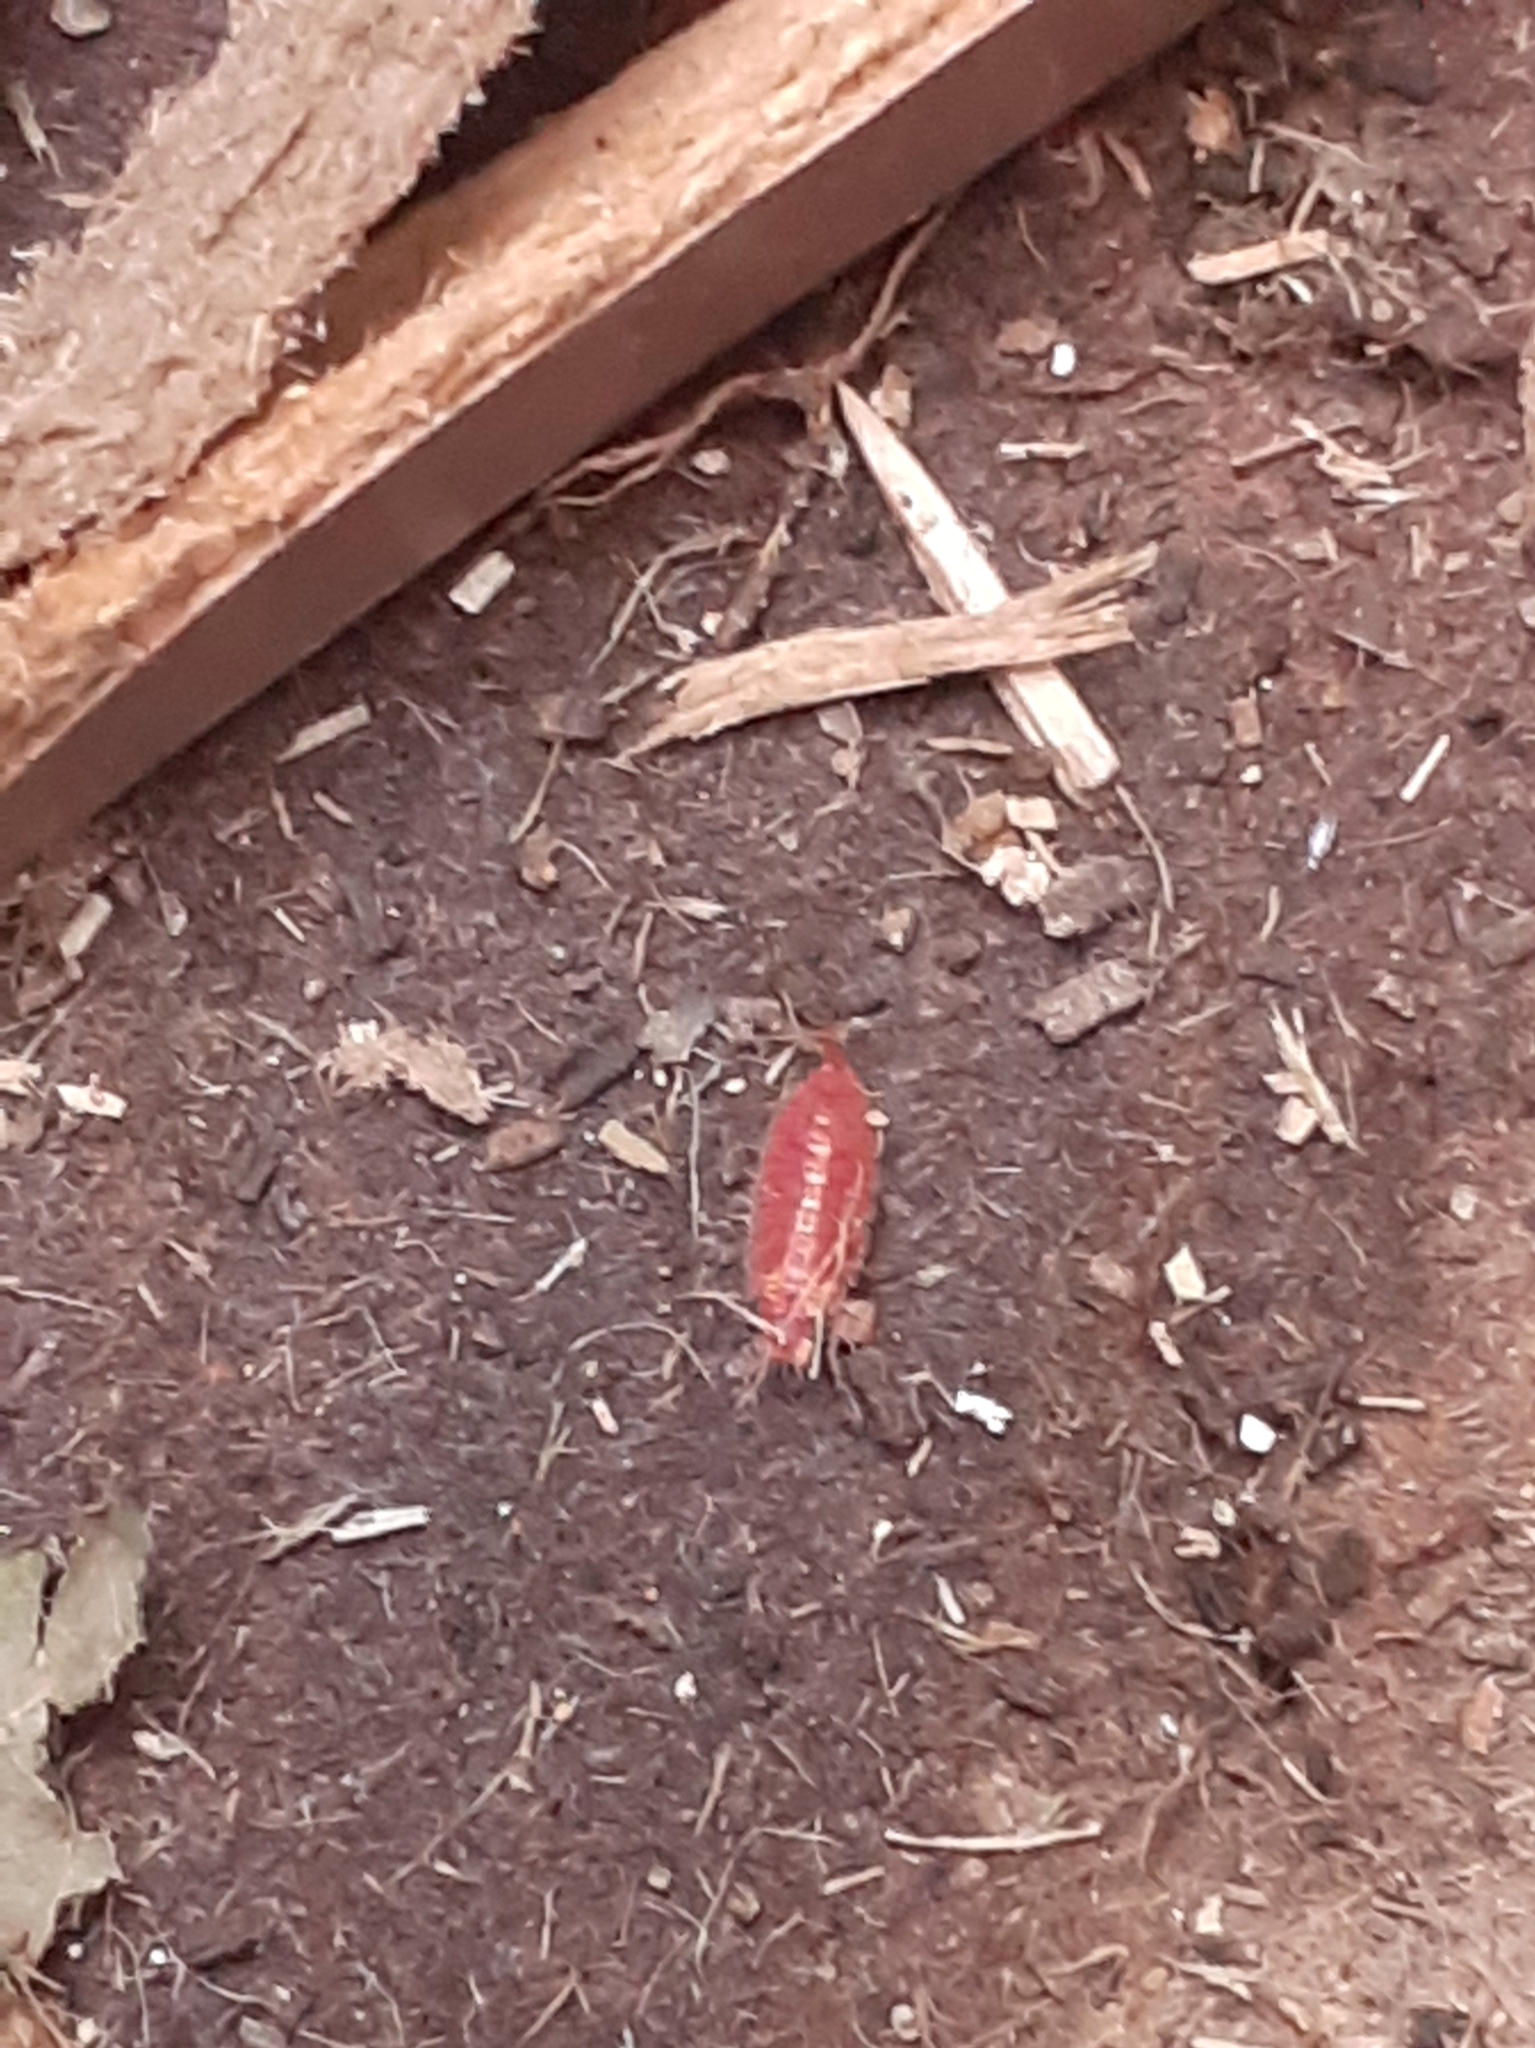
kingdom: Animalia
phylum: Arthropoda
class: Malacostraca
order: Isopoda
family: Trichoniscidae
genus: Androniscus
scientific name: Androniscus dentiger
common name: Rosy woodlouse
